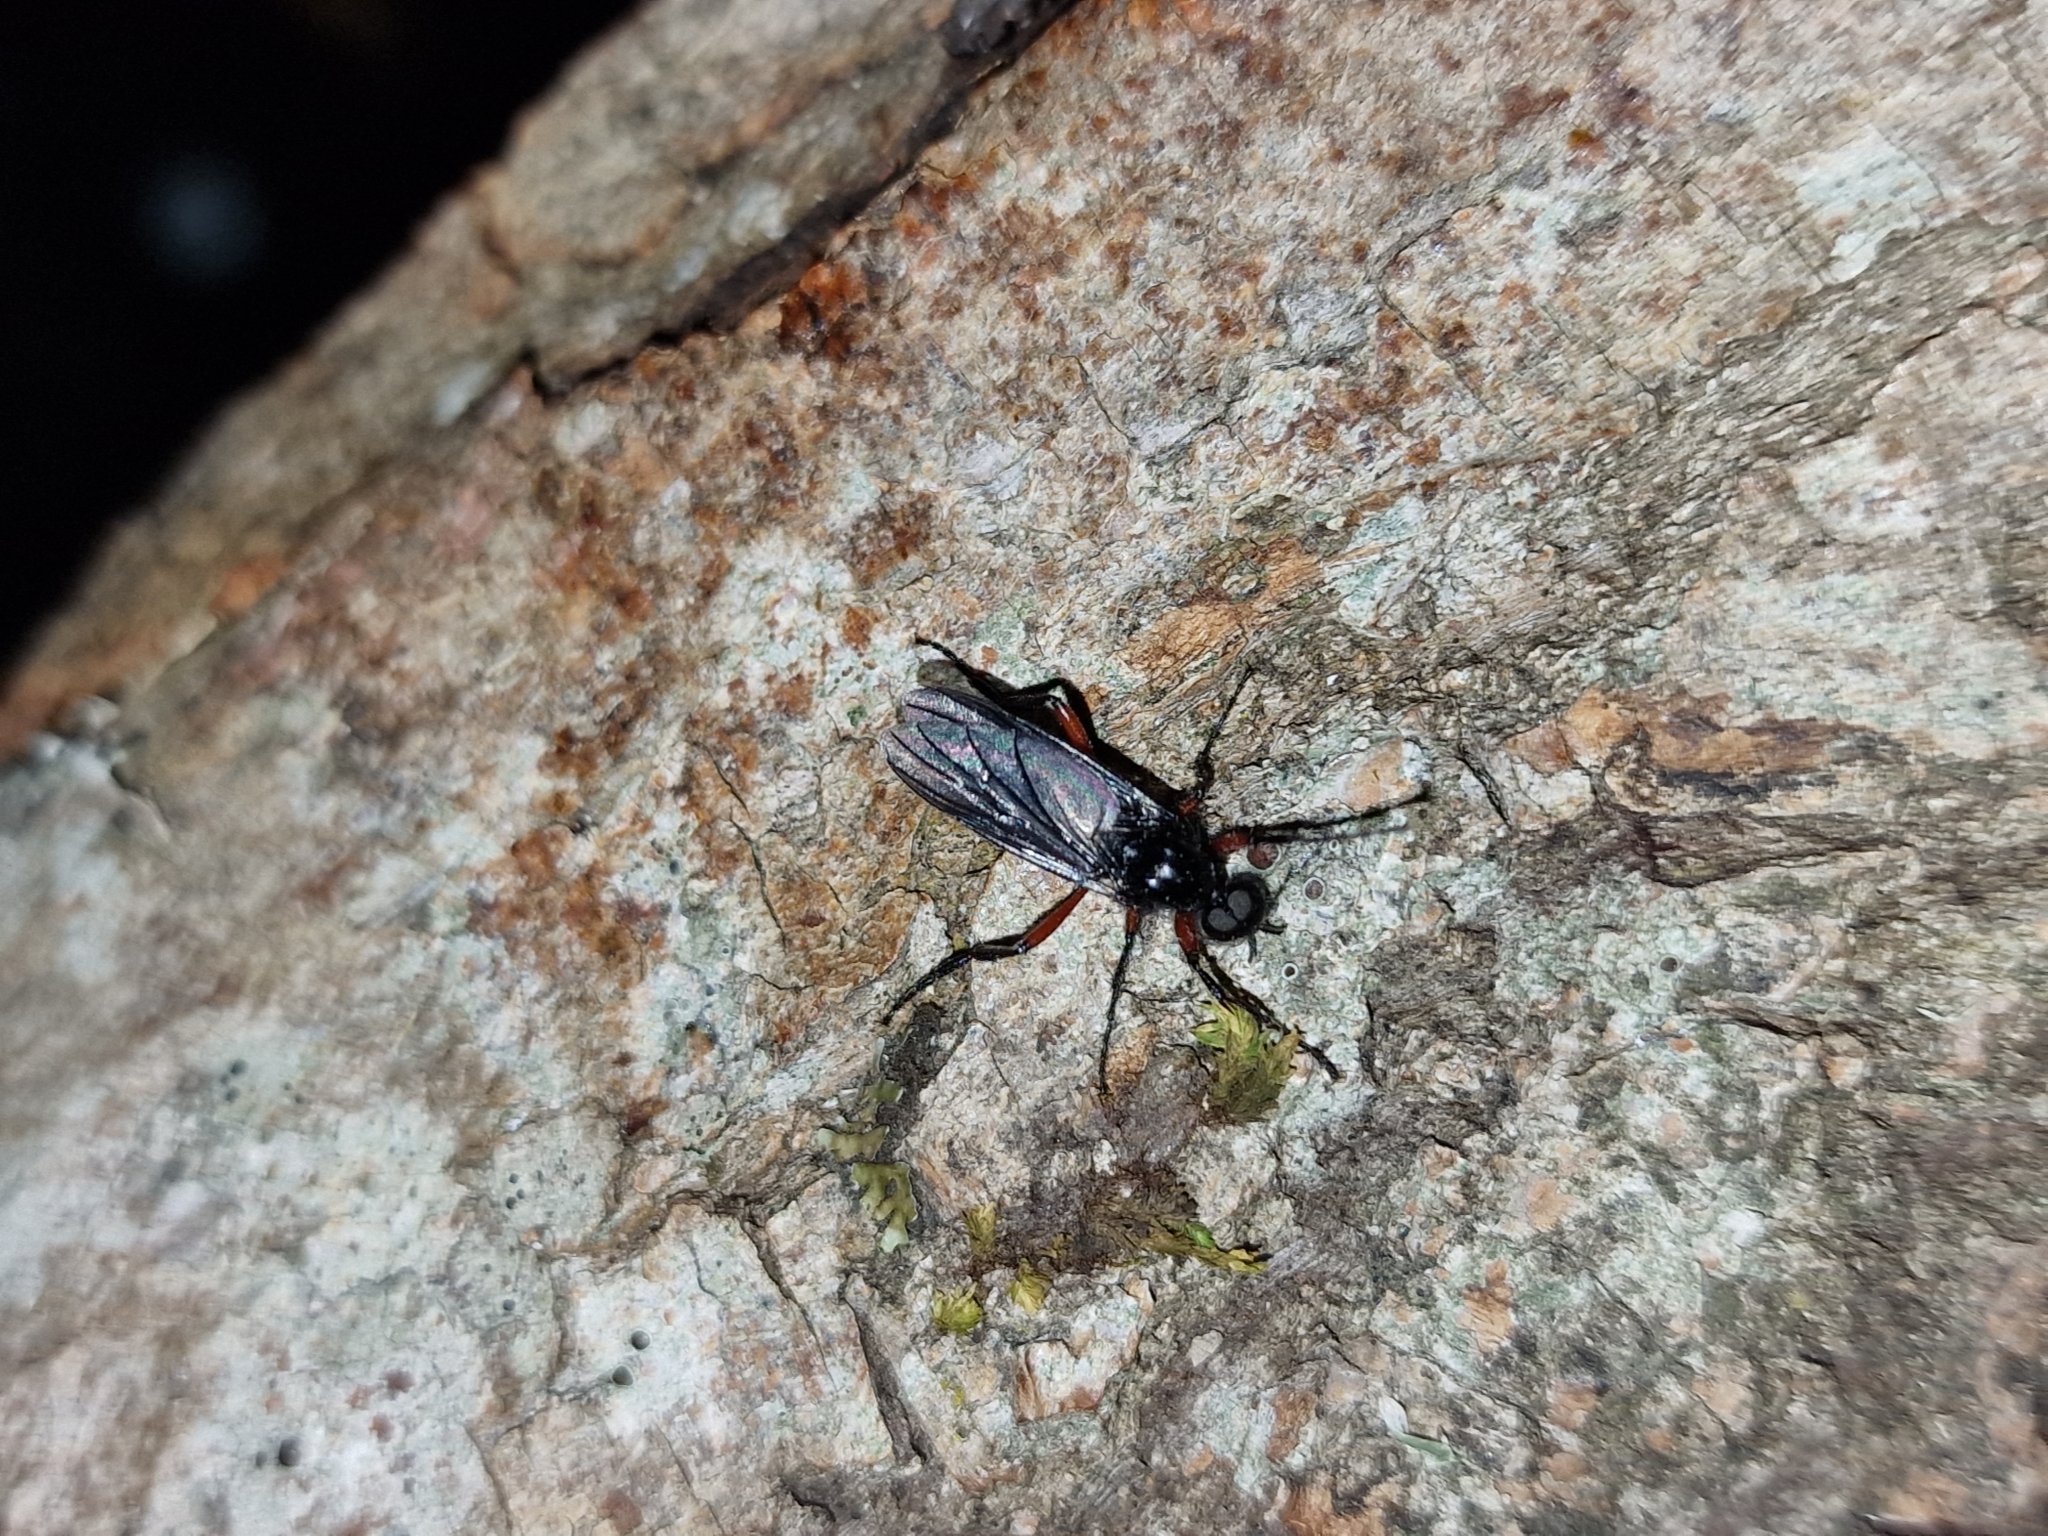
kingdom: Animalia
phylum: Arthropoda
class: Insecta
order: Diptera
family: Bibionidae
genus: Bibio
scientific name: Bibio pomonae
